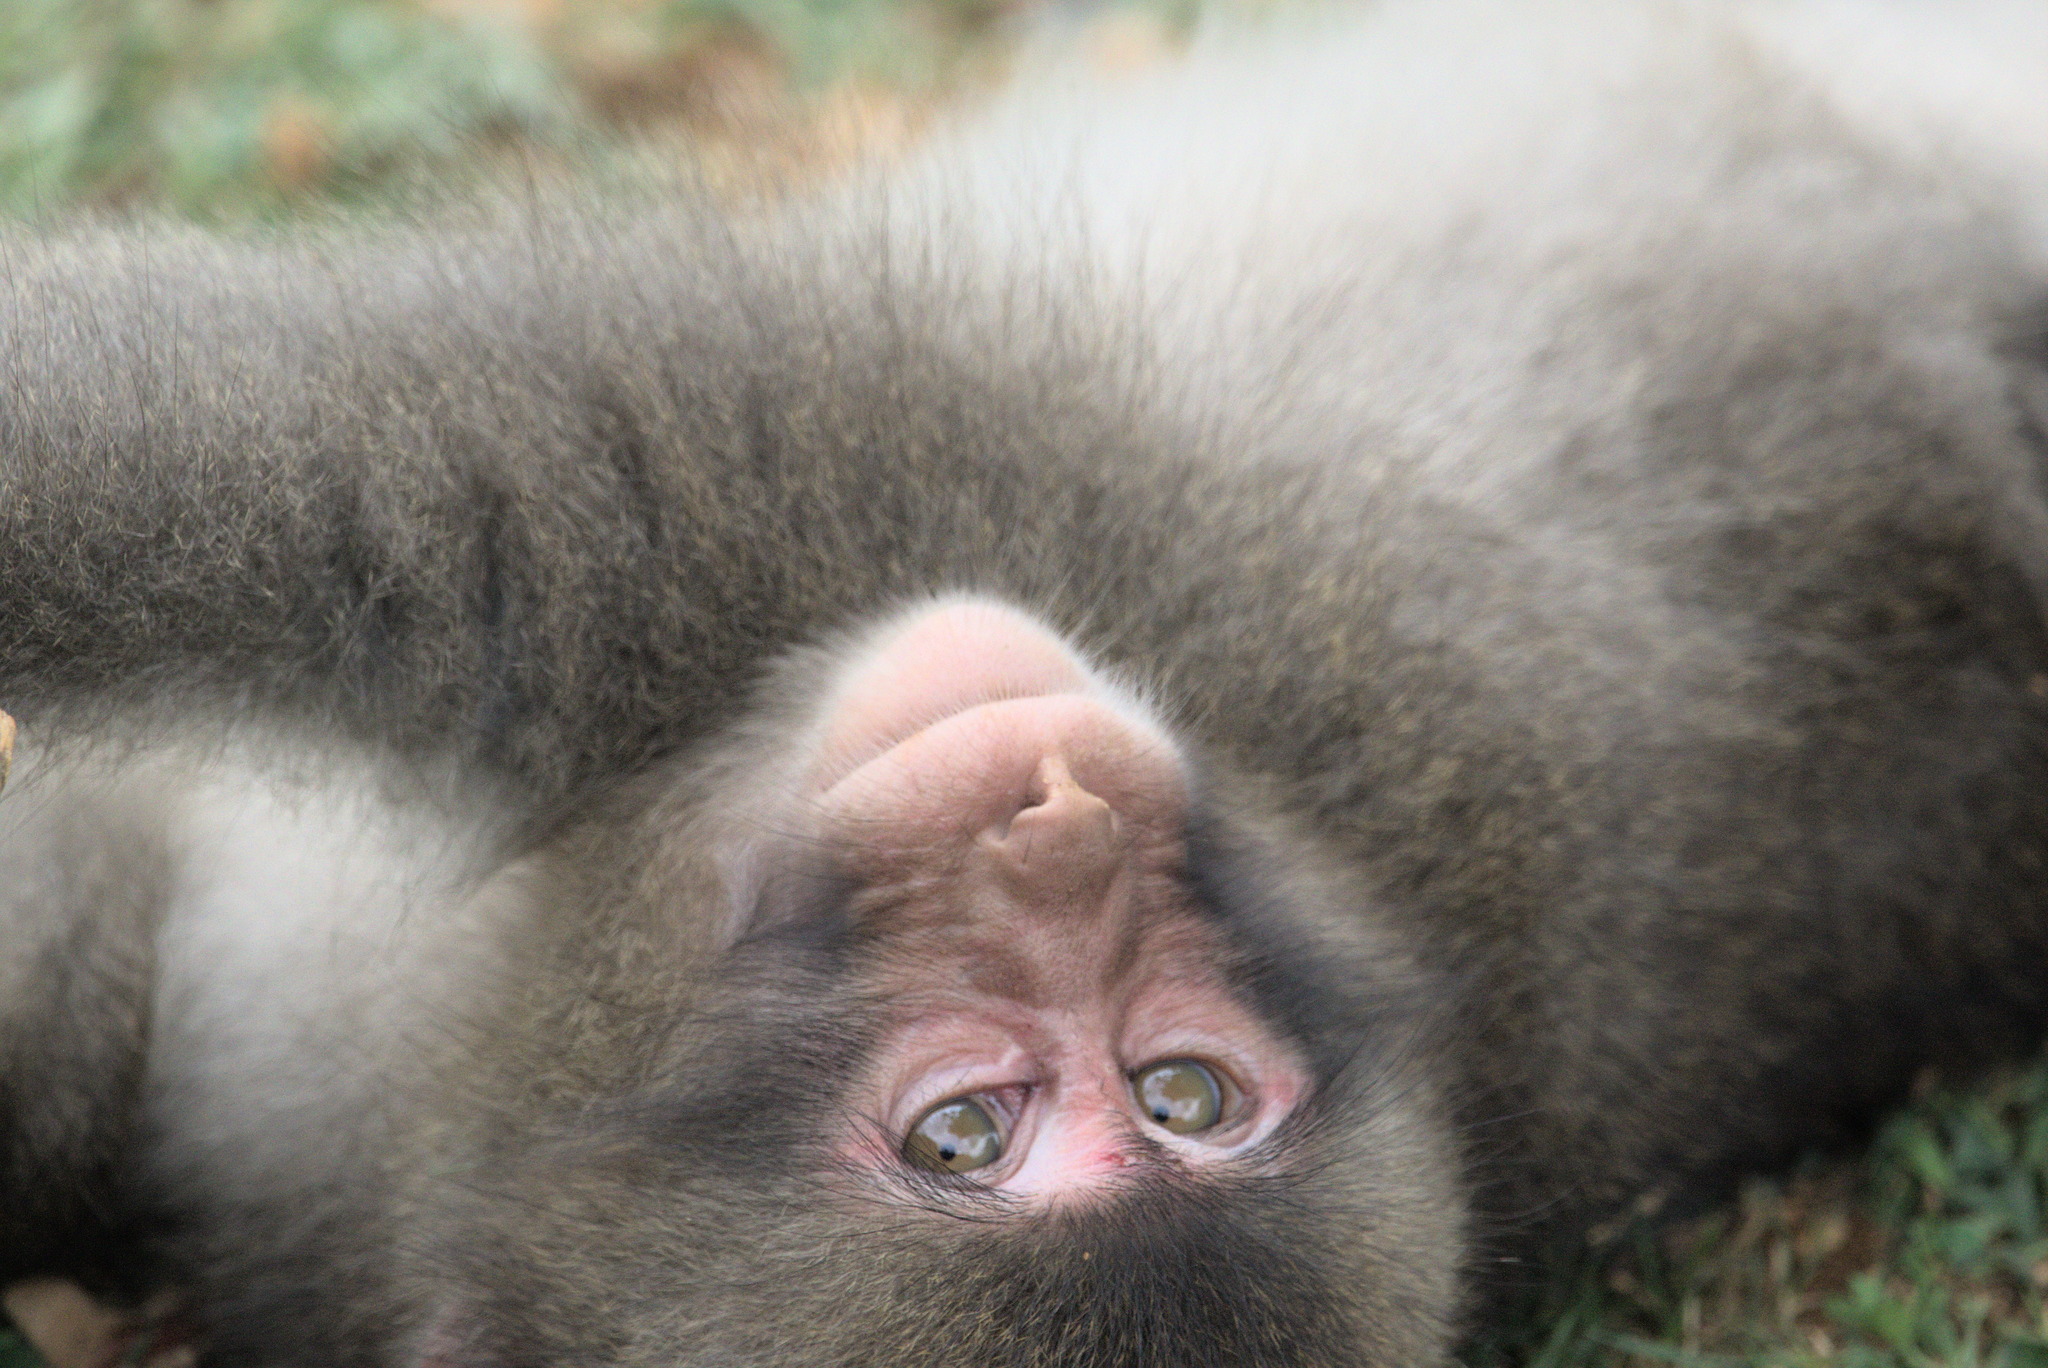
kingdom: Animalia
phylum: Chordata
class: Mammalia
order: Primates
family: Cercopithecidae
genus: Macaca
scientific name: Macaca fuscata
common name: Japanese macaque
